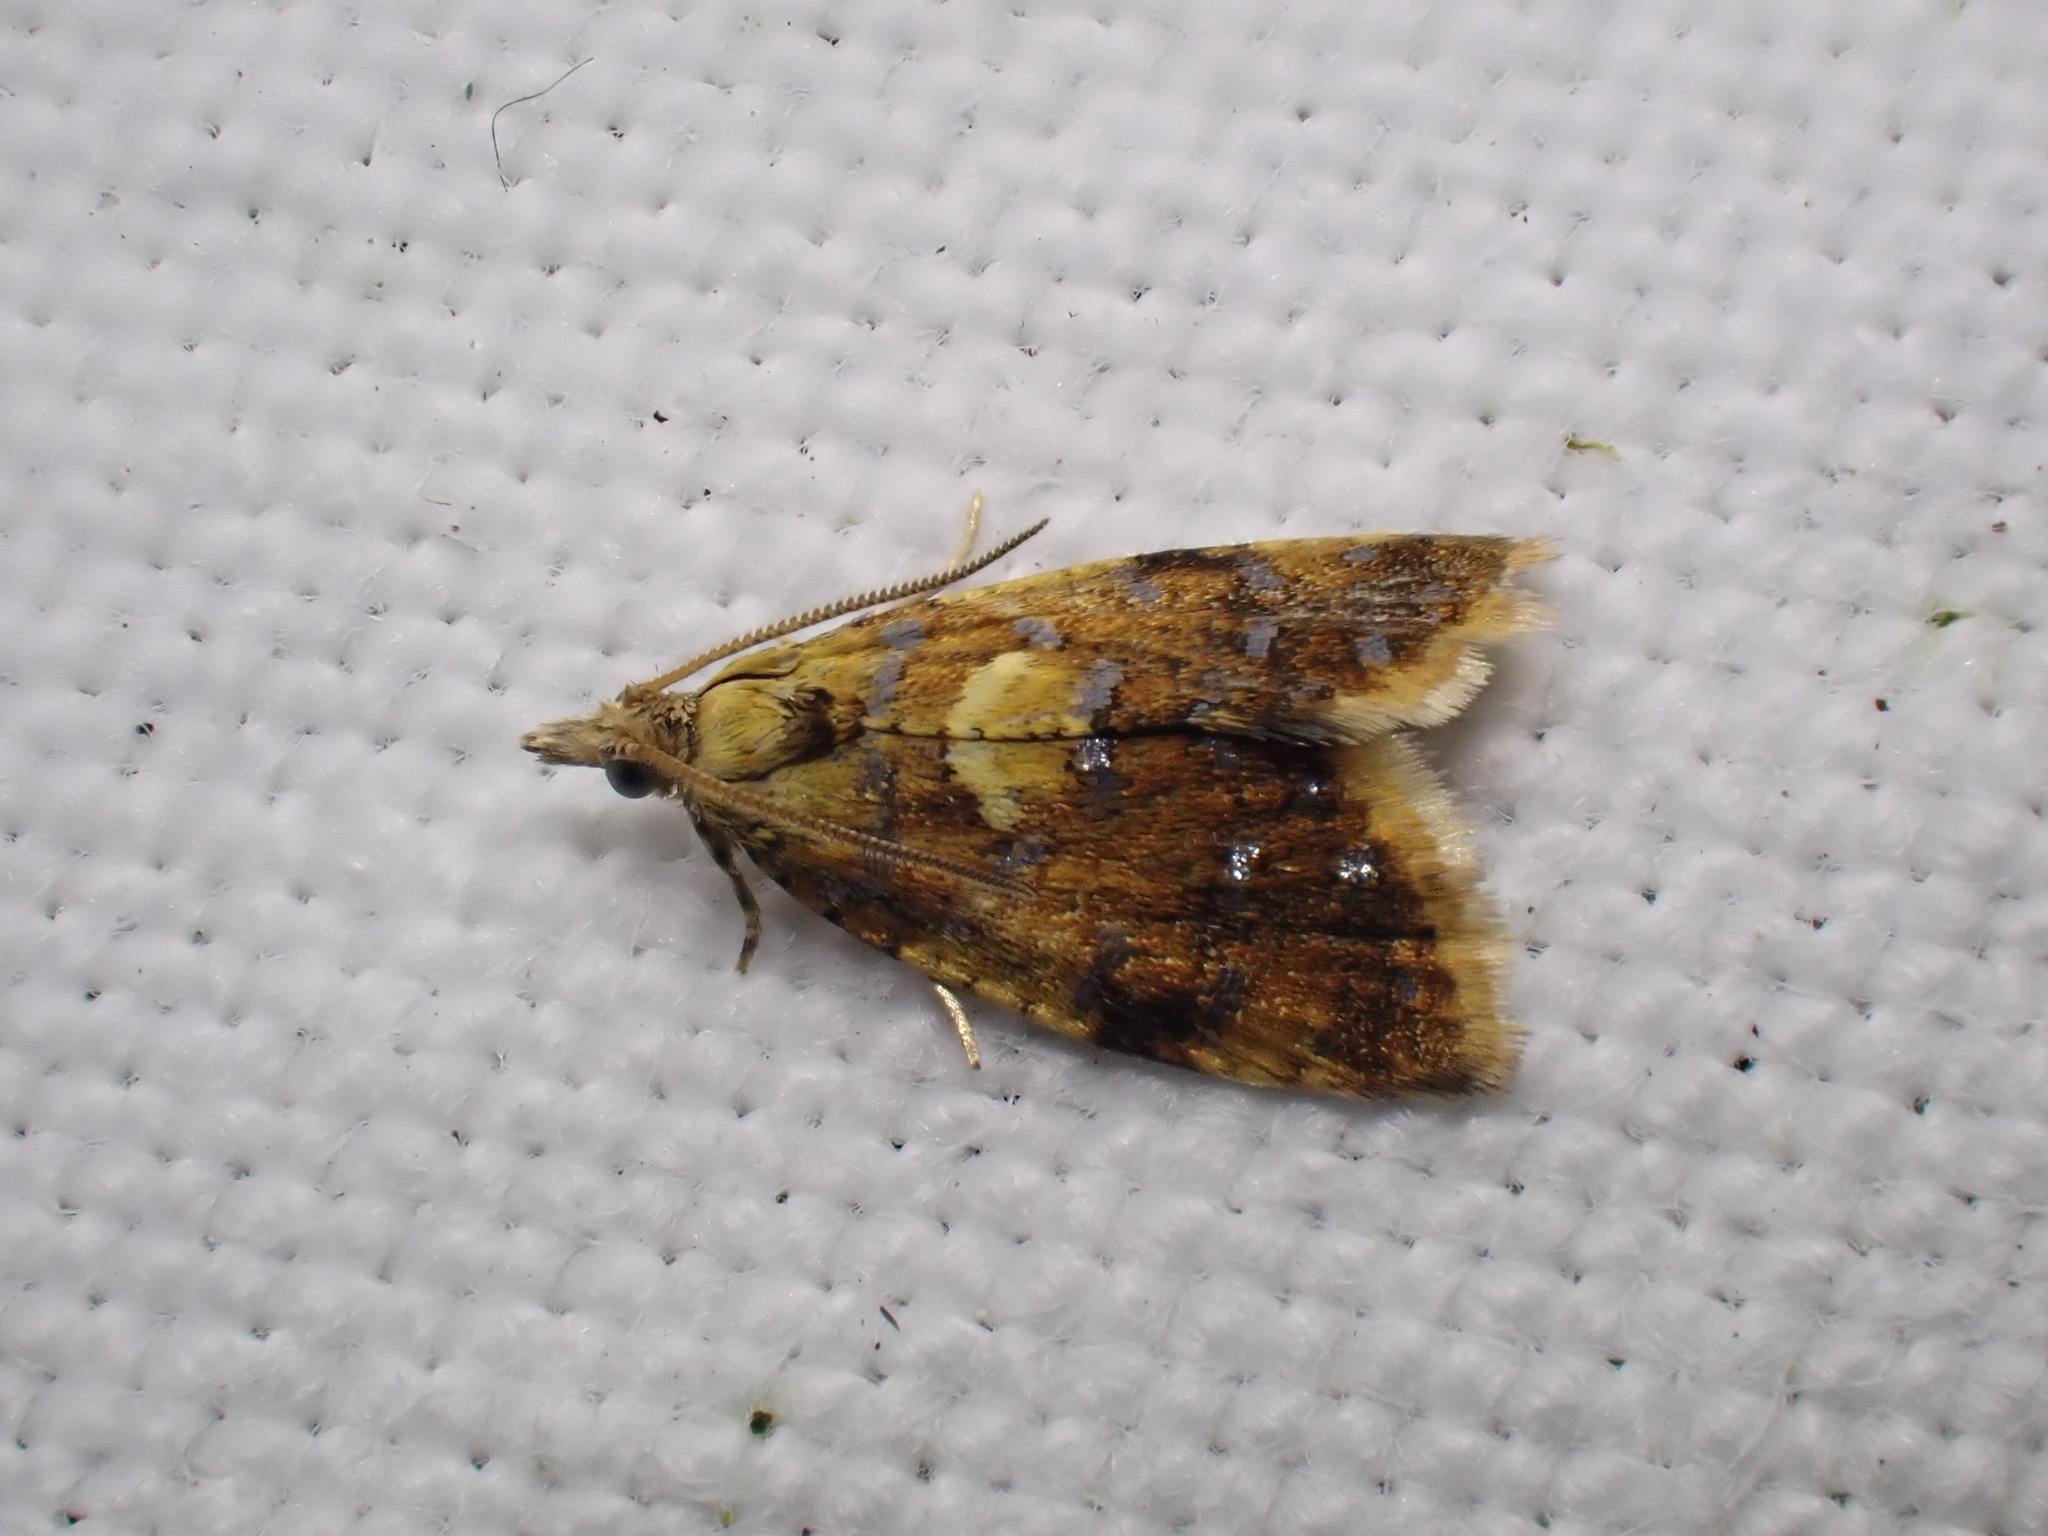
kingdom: Animalia
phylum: Arthropoda
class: Insecta
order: Lepidoptera
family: Tortricidae
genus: Pseudargyrotoza
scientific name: Pseudargyrotoza conwagana
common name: Yellow-spot twist
